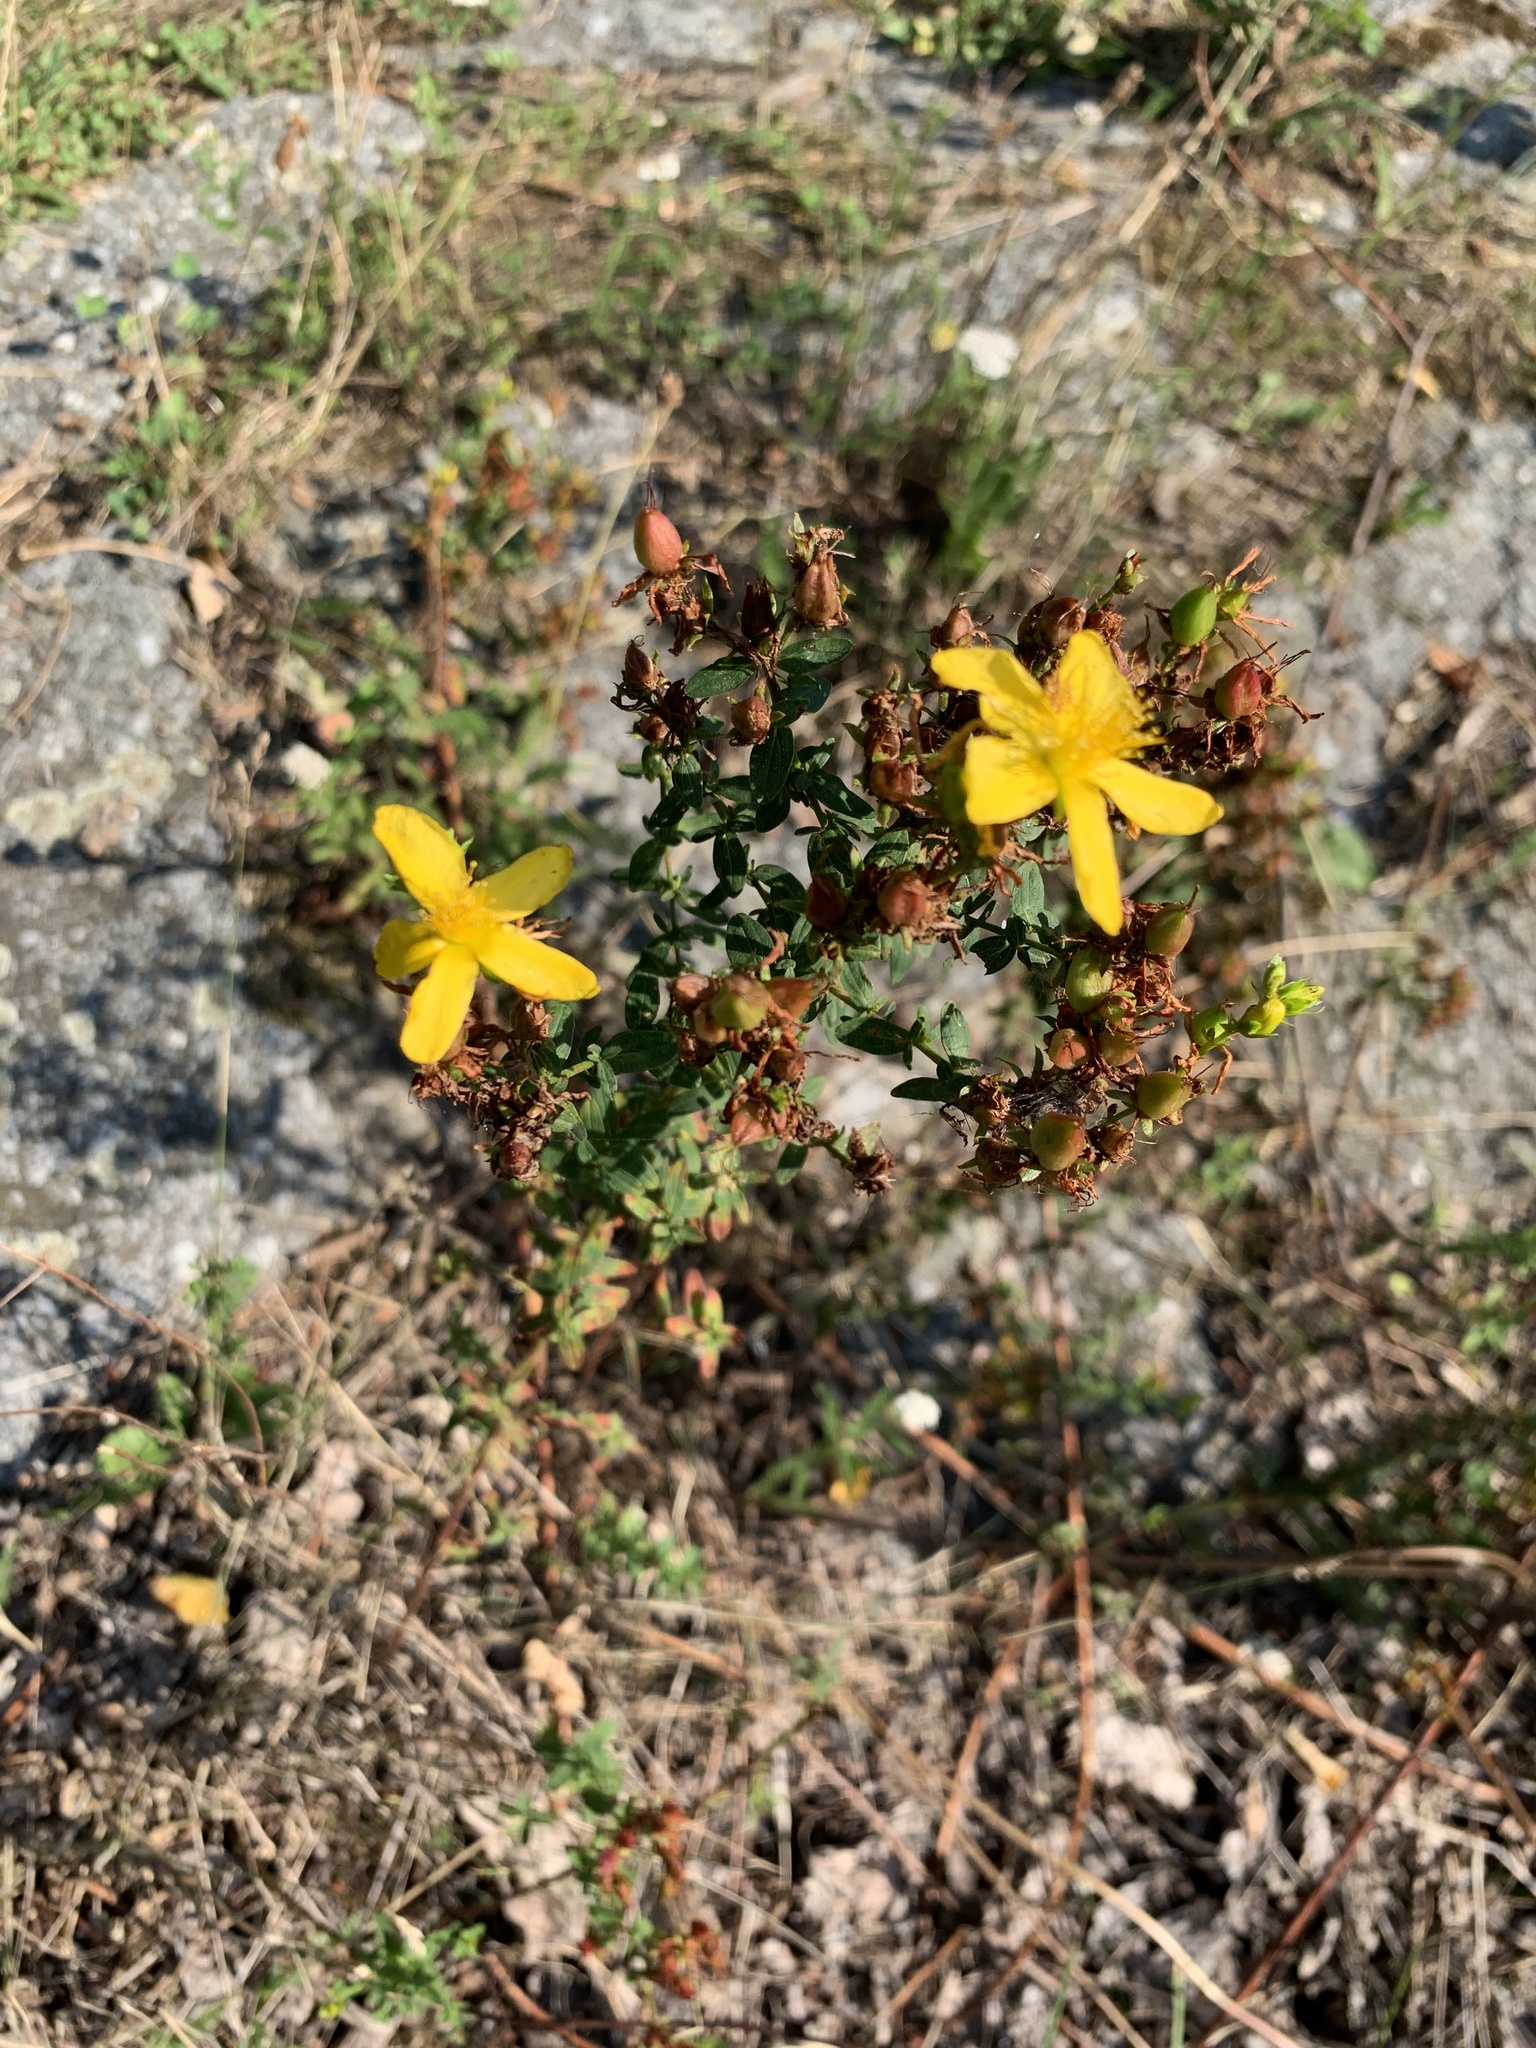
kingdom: Plantae
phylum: Tracheophyta
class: Magnoliopsida
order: Malpighiales
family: Hypericaceae
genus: Hypericum
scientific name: Hypericum perforatum
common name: Common st. johnswort
